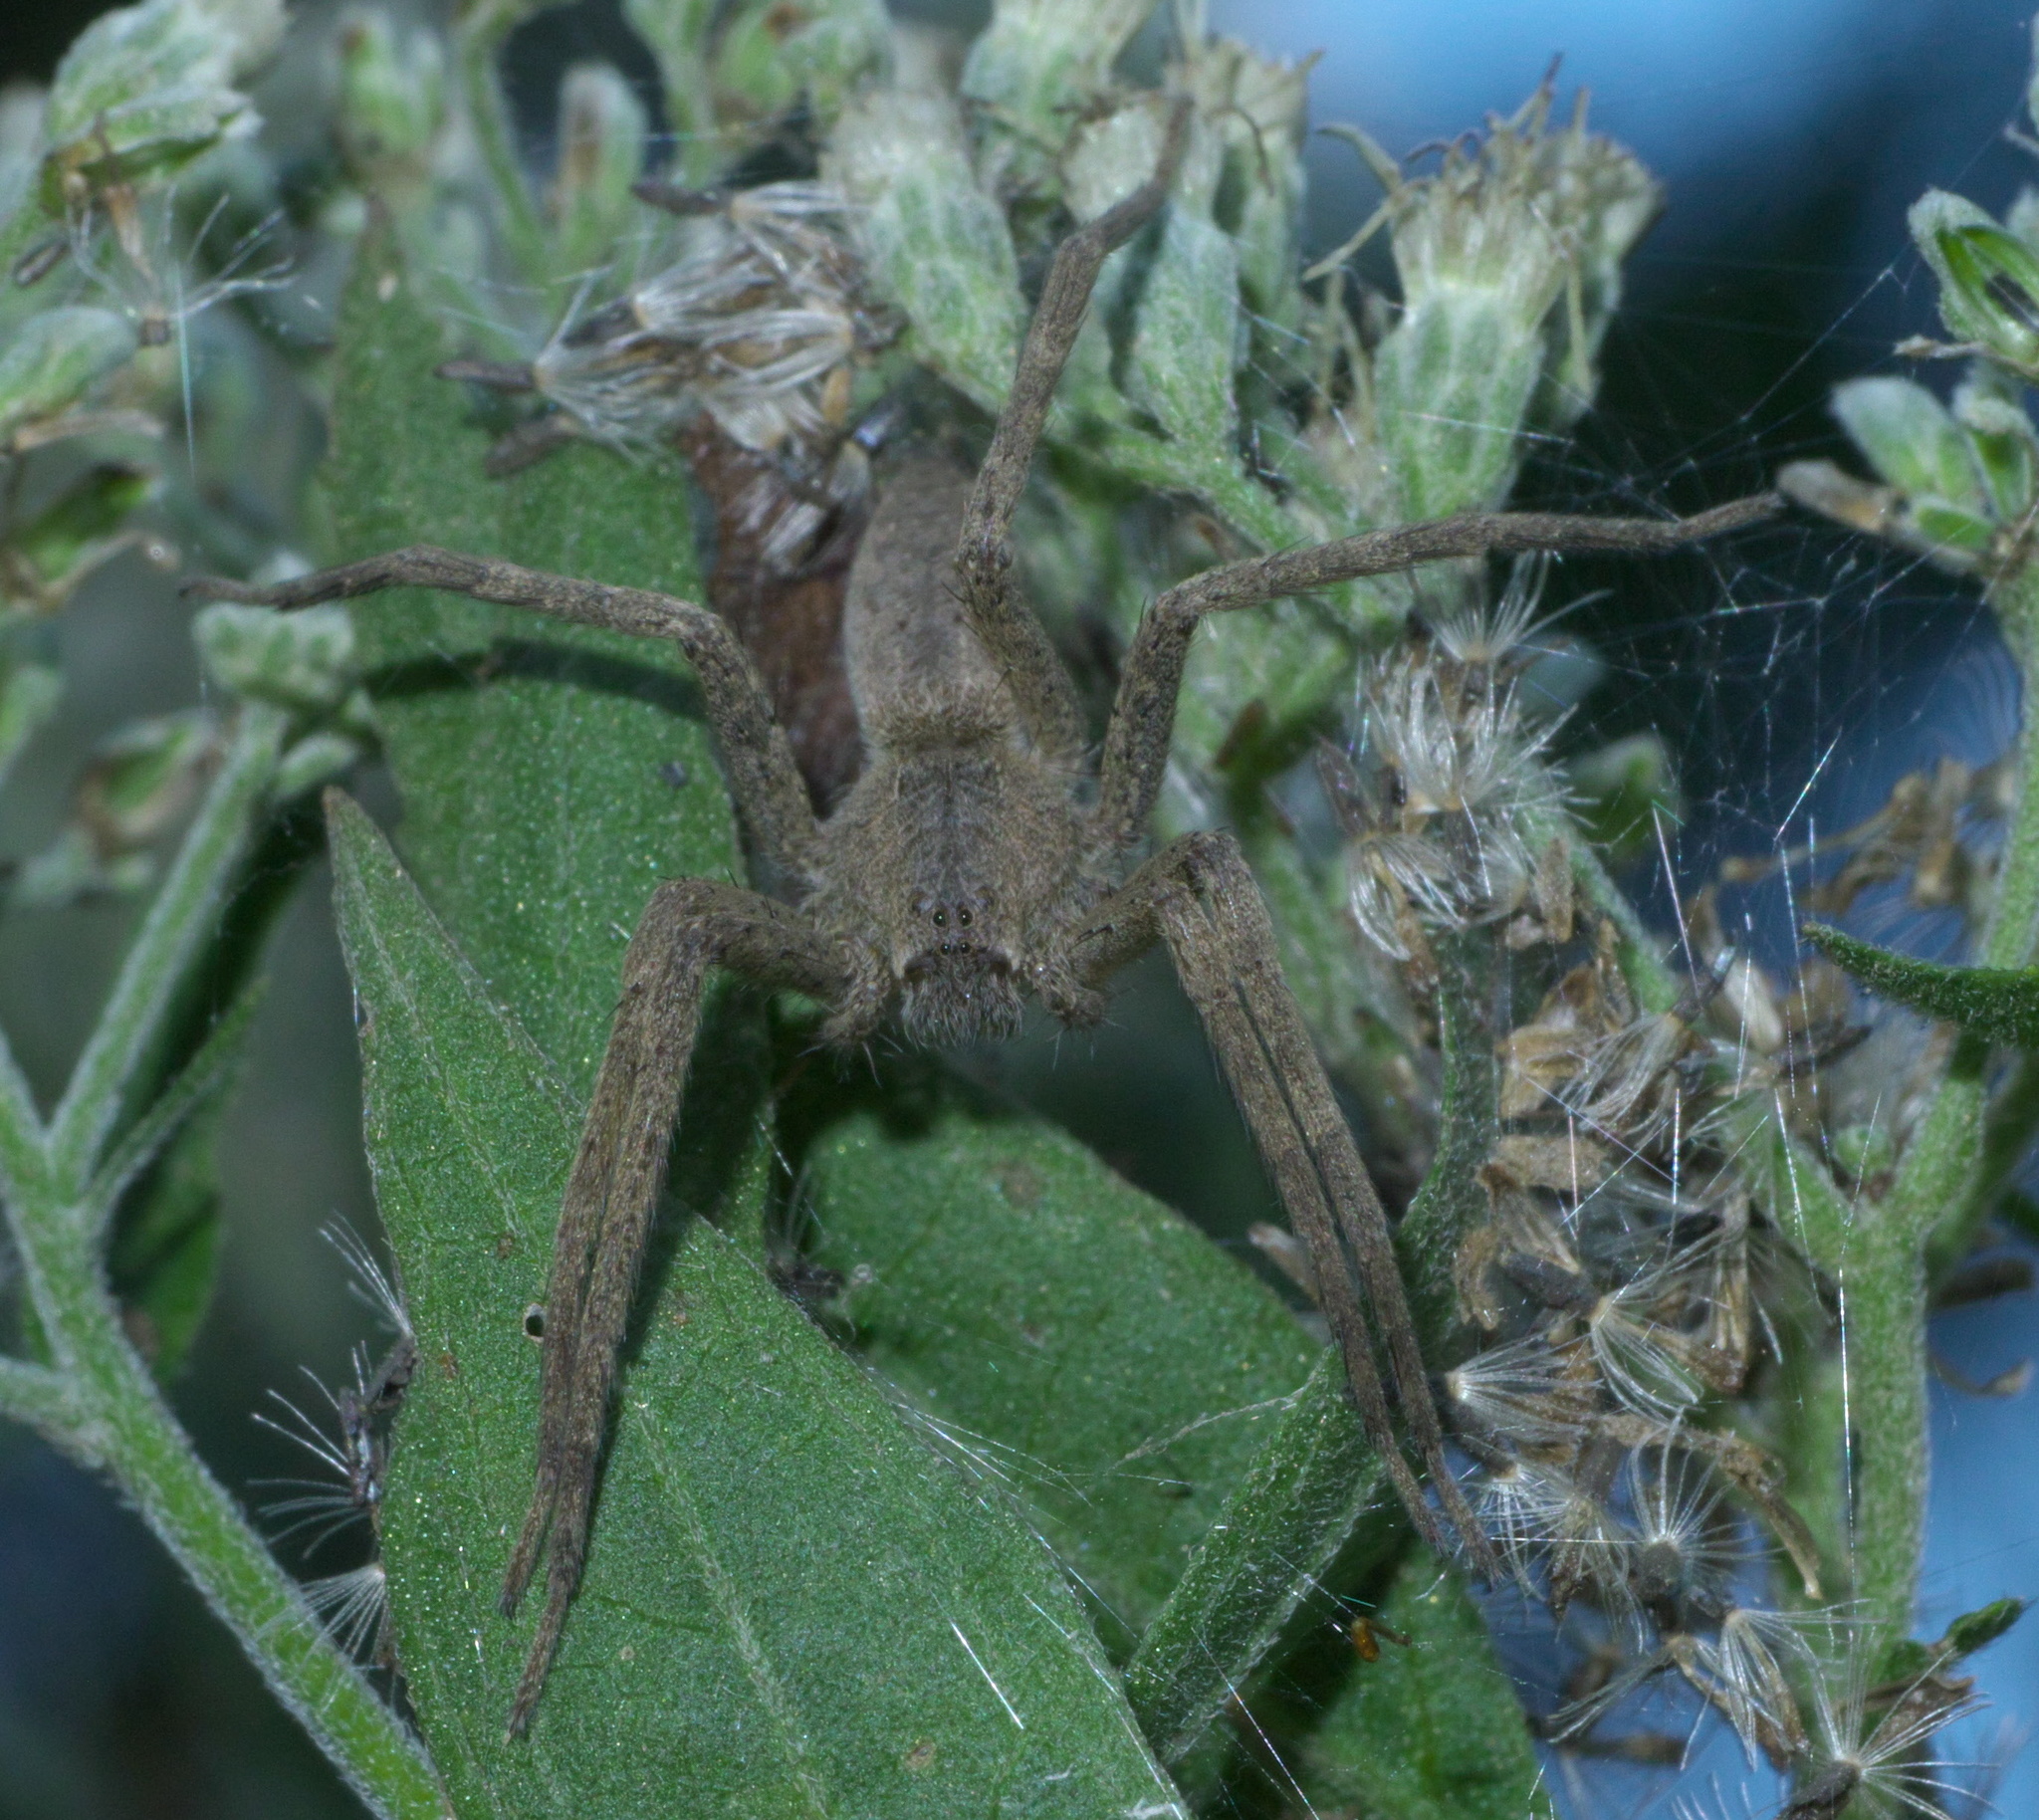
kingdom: Animalia
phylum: Arthropoda
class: Arachnida
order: Araneae
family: Pisauridae
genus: Pisaurina
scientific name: Pisaurina mira
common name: American nursery web spider
